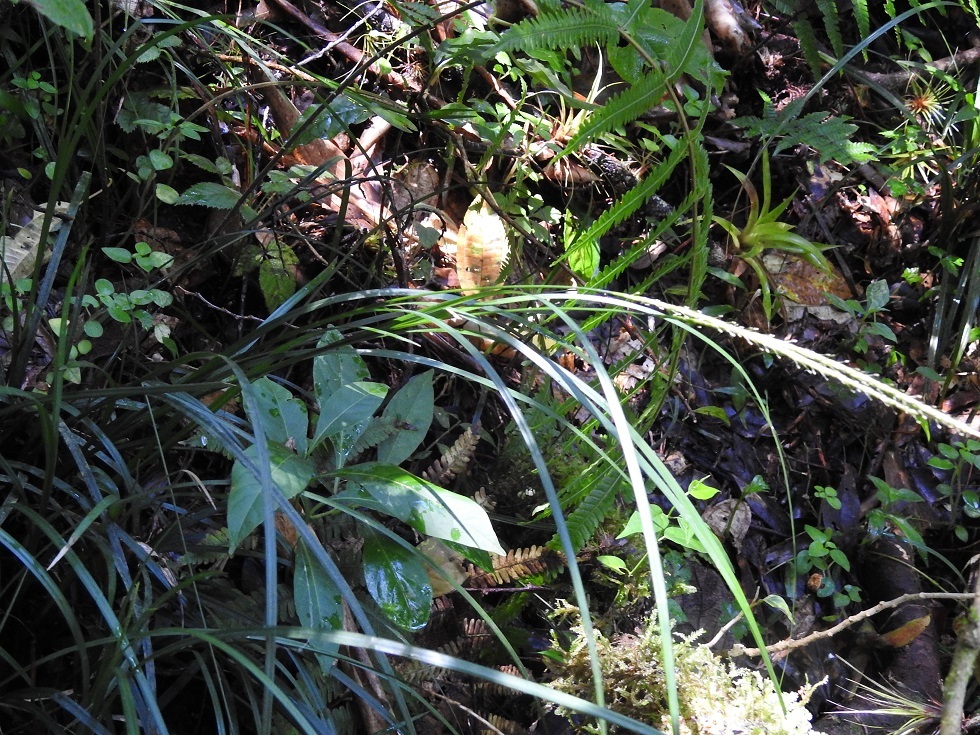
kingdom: Plantae
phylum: Tracheophyta
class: Liliopsida
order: Poales
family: Cyperaceae
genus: Carex
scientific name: Carex hamata
